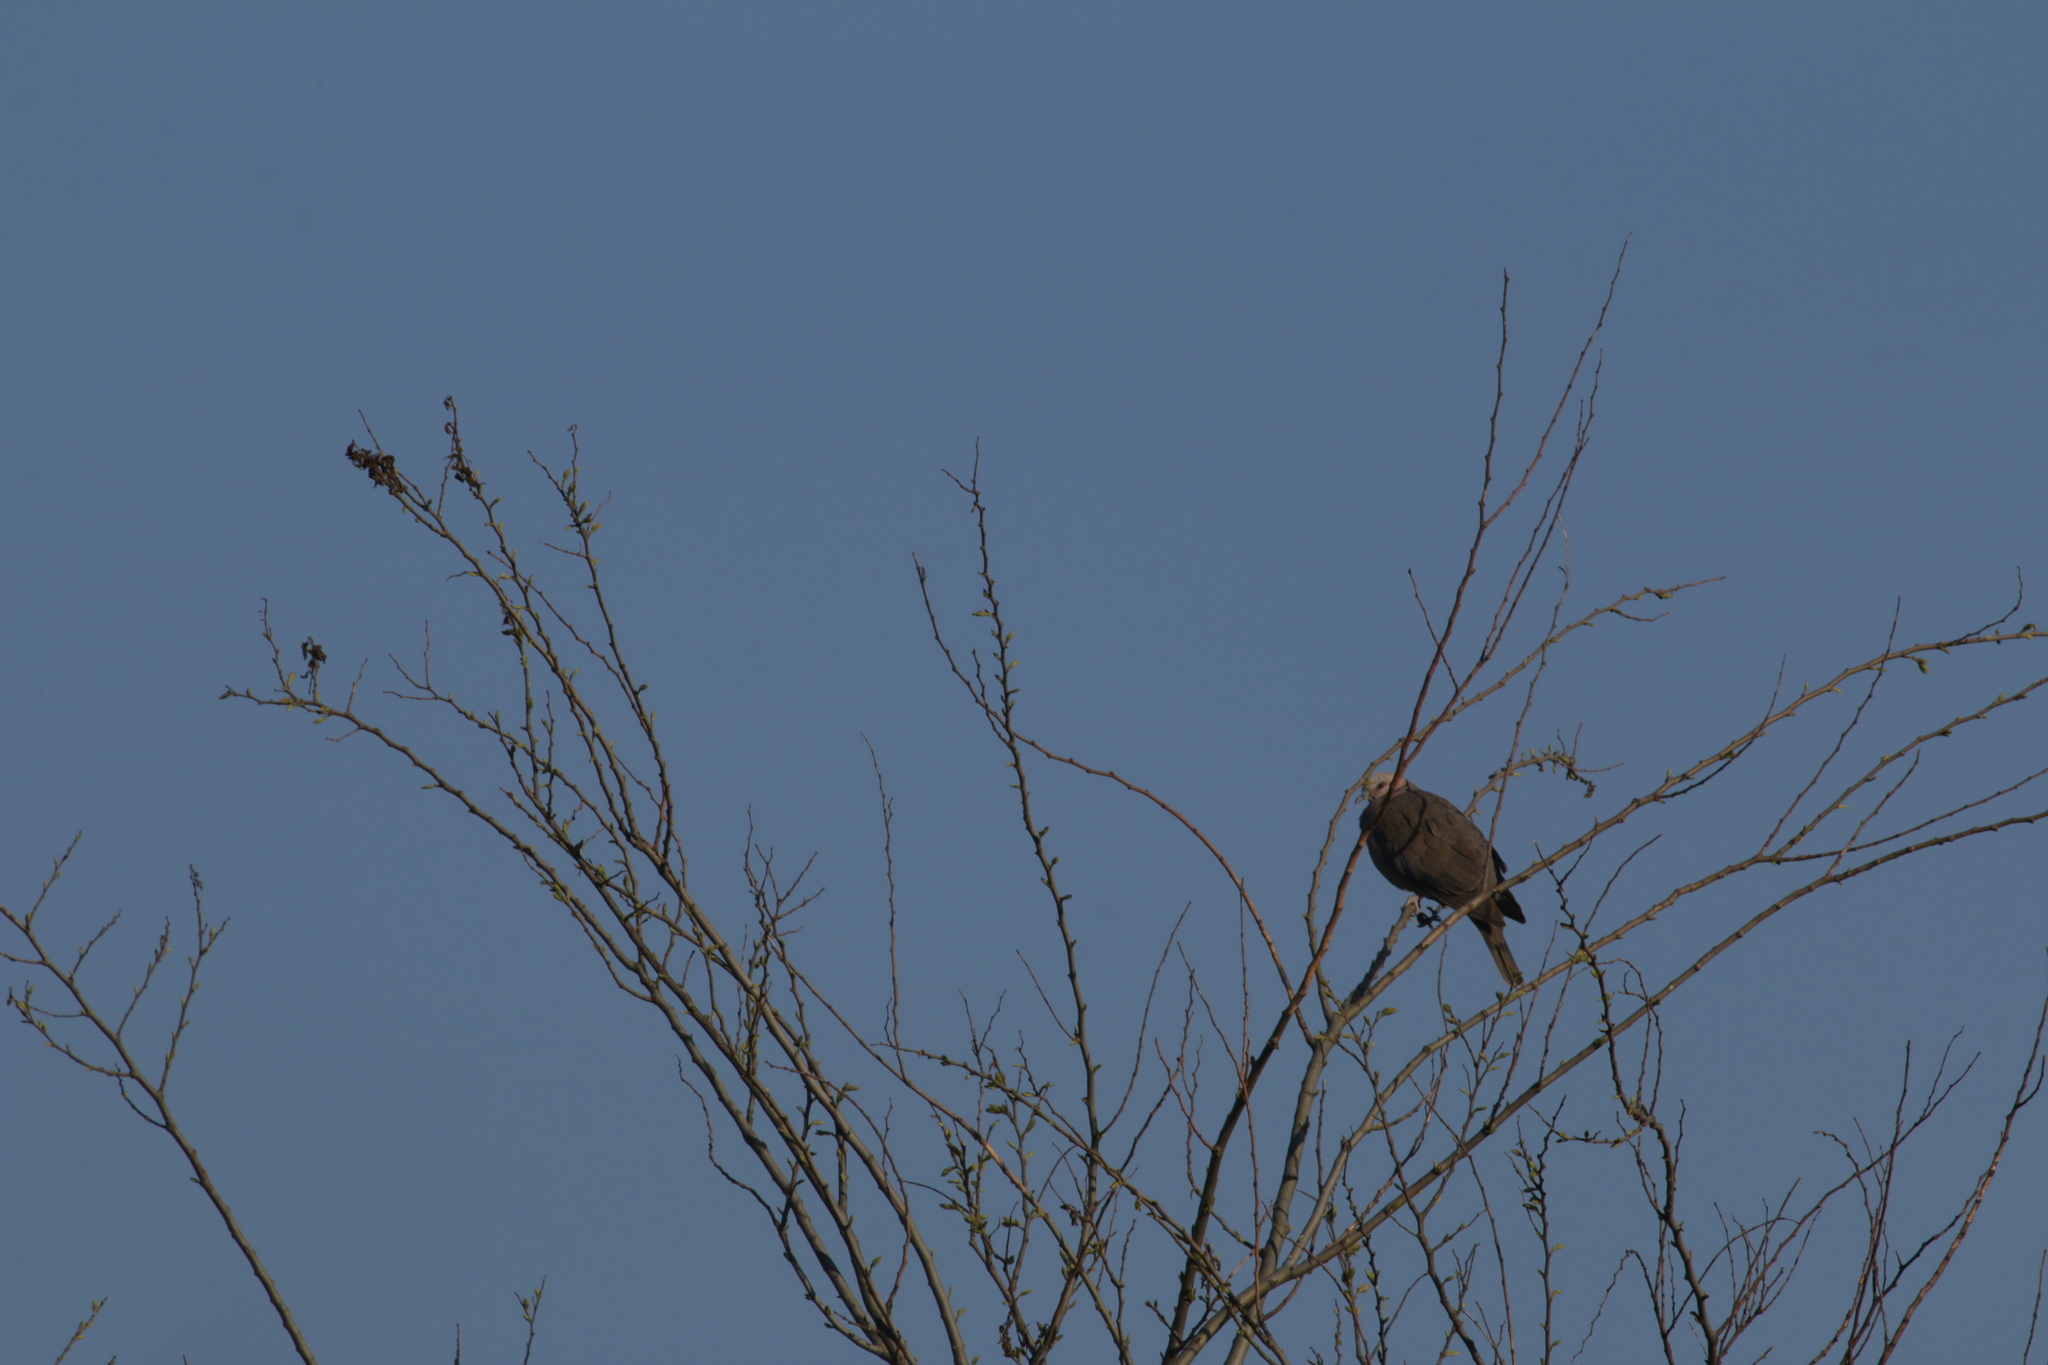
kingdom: Animalia
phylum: Chordata
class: Aves
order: Columbiformes
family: Columbidae
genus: Streptopelia
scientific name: Streptopelia semitorquata
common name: Red-eyed dove
